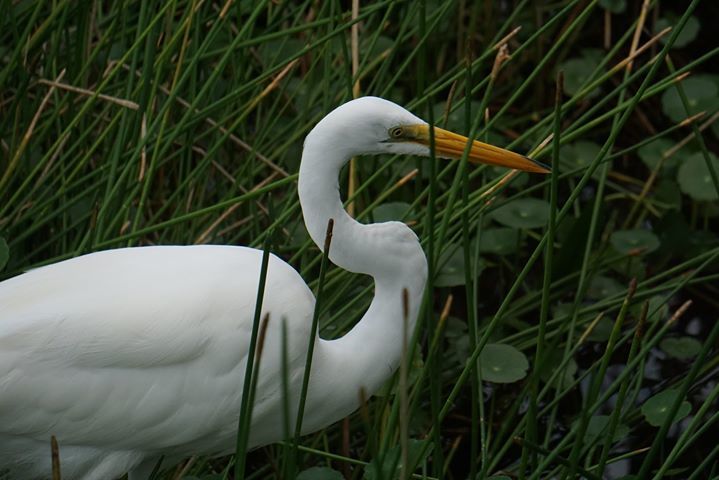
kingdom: Animalia
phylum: Chordata
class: Aves
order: Pelecaniformes
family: Ardeidae
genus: Ardea
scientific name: Ardea alba
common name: Great egret
